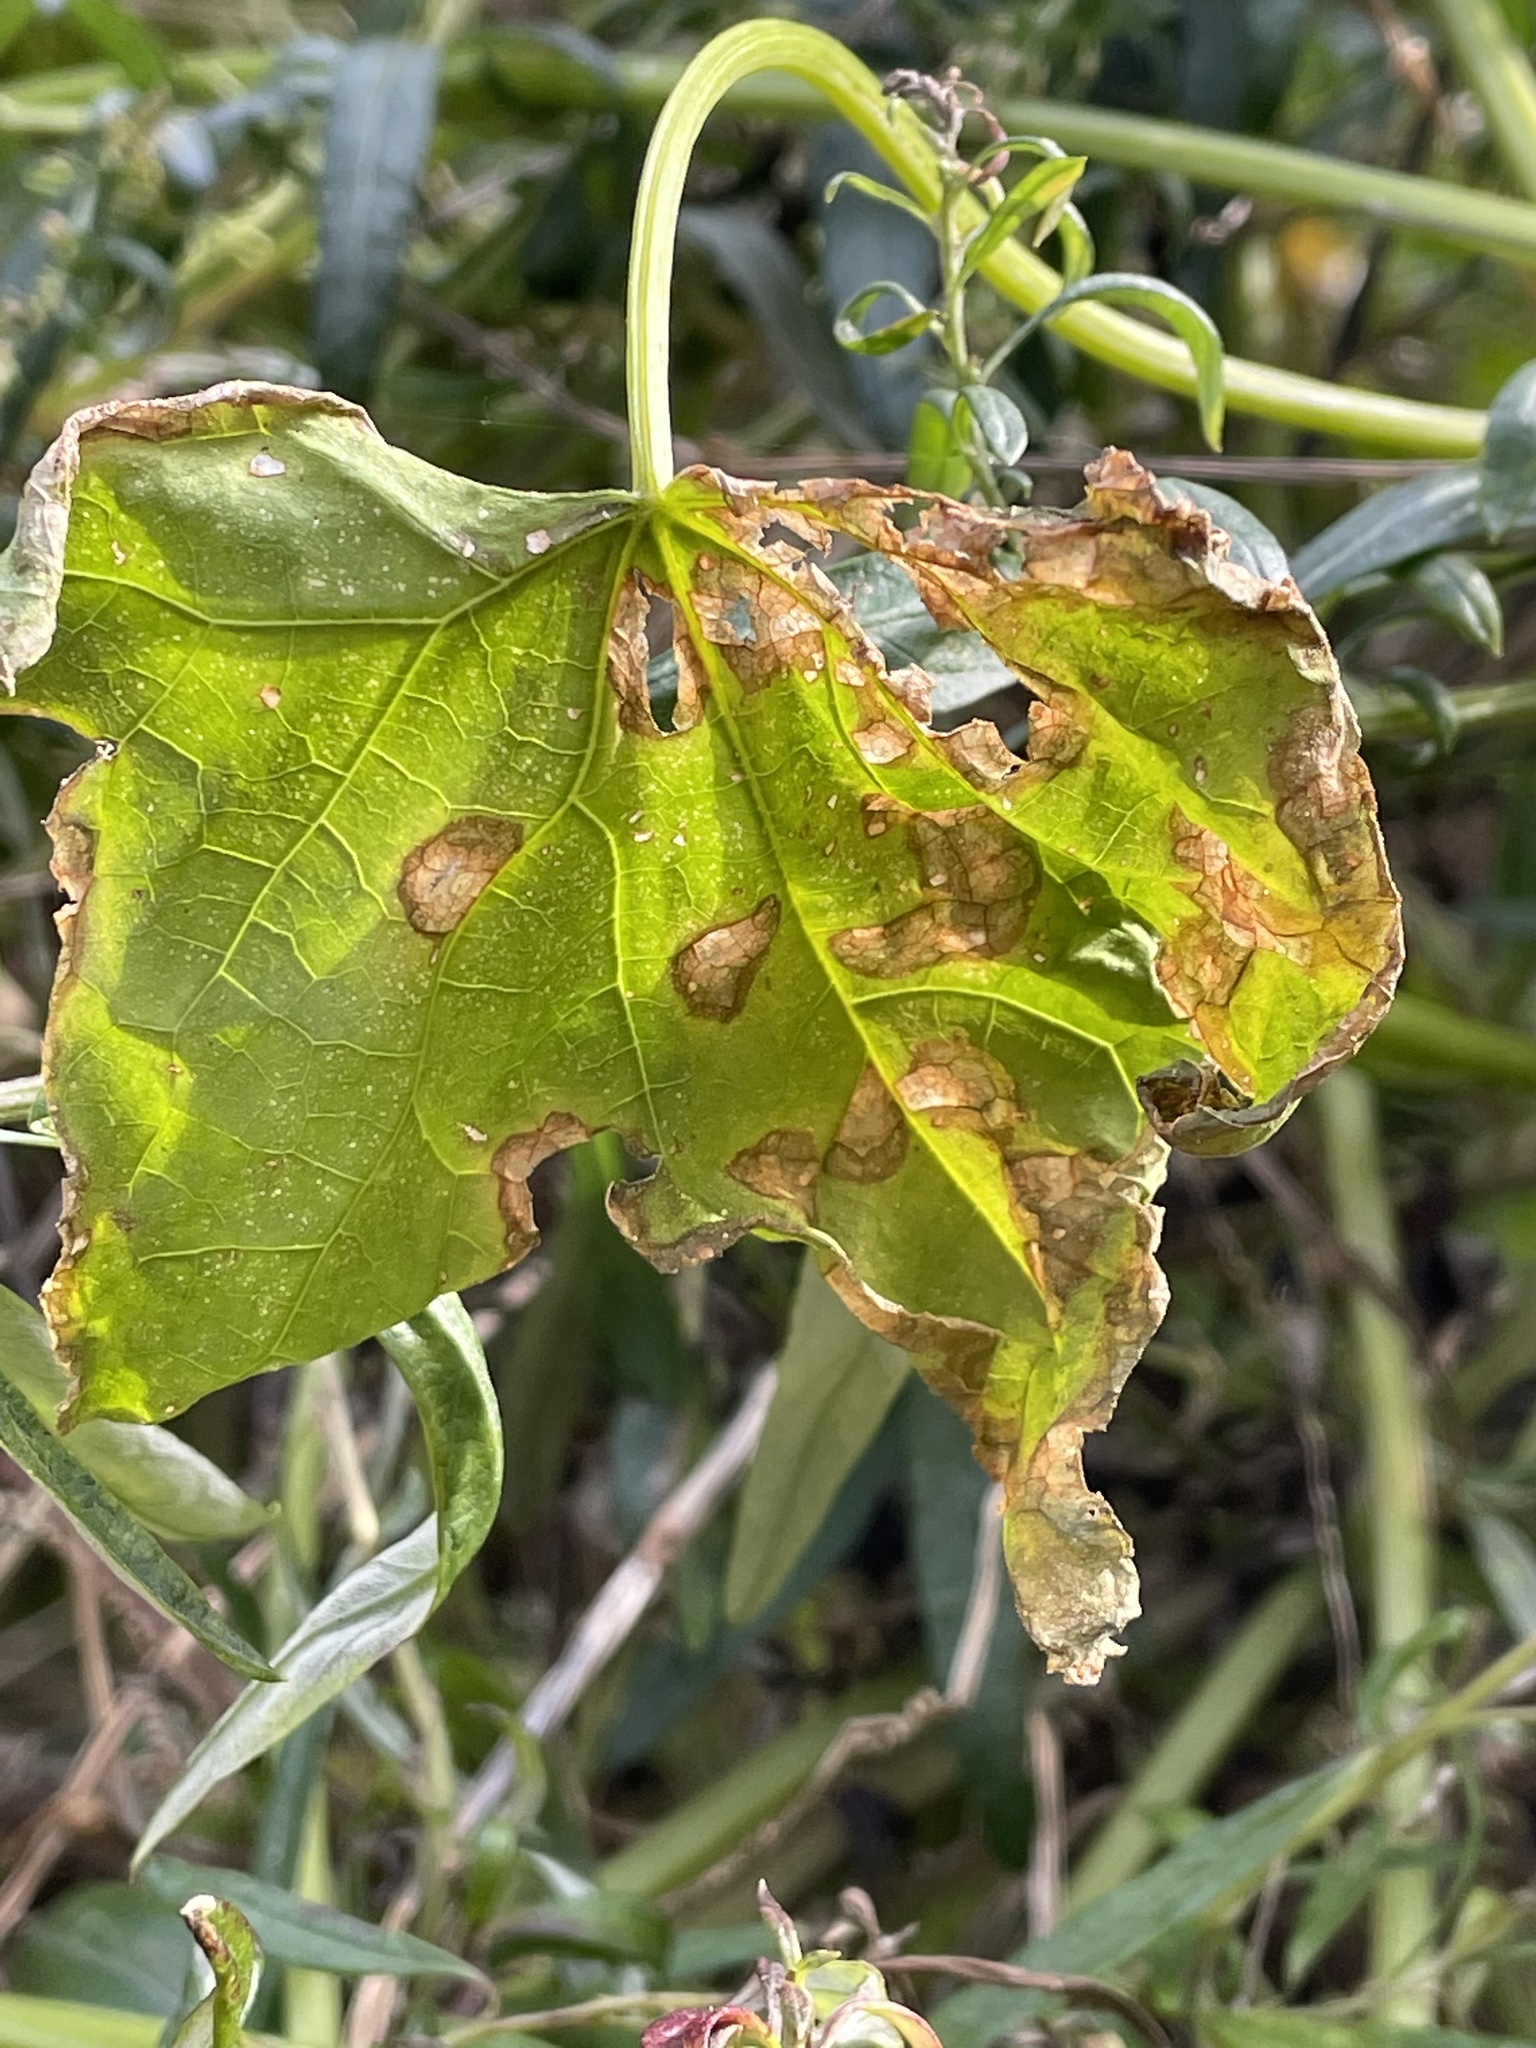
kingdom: Plantae
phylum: Tracheophyta
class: Magnoliopsida
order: Cucurbitales
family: Cucurbitaceae
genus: Echinocystis
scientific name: Echinocystis lobata
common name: Wild cucumber
